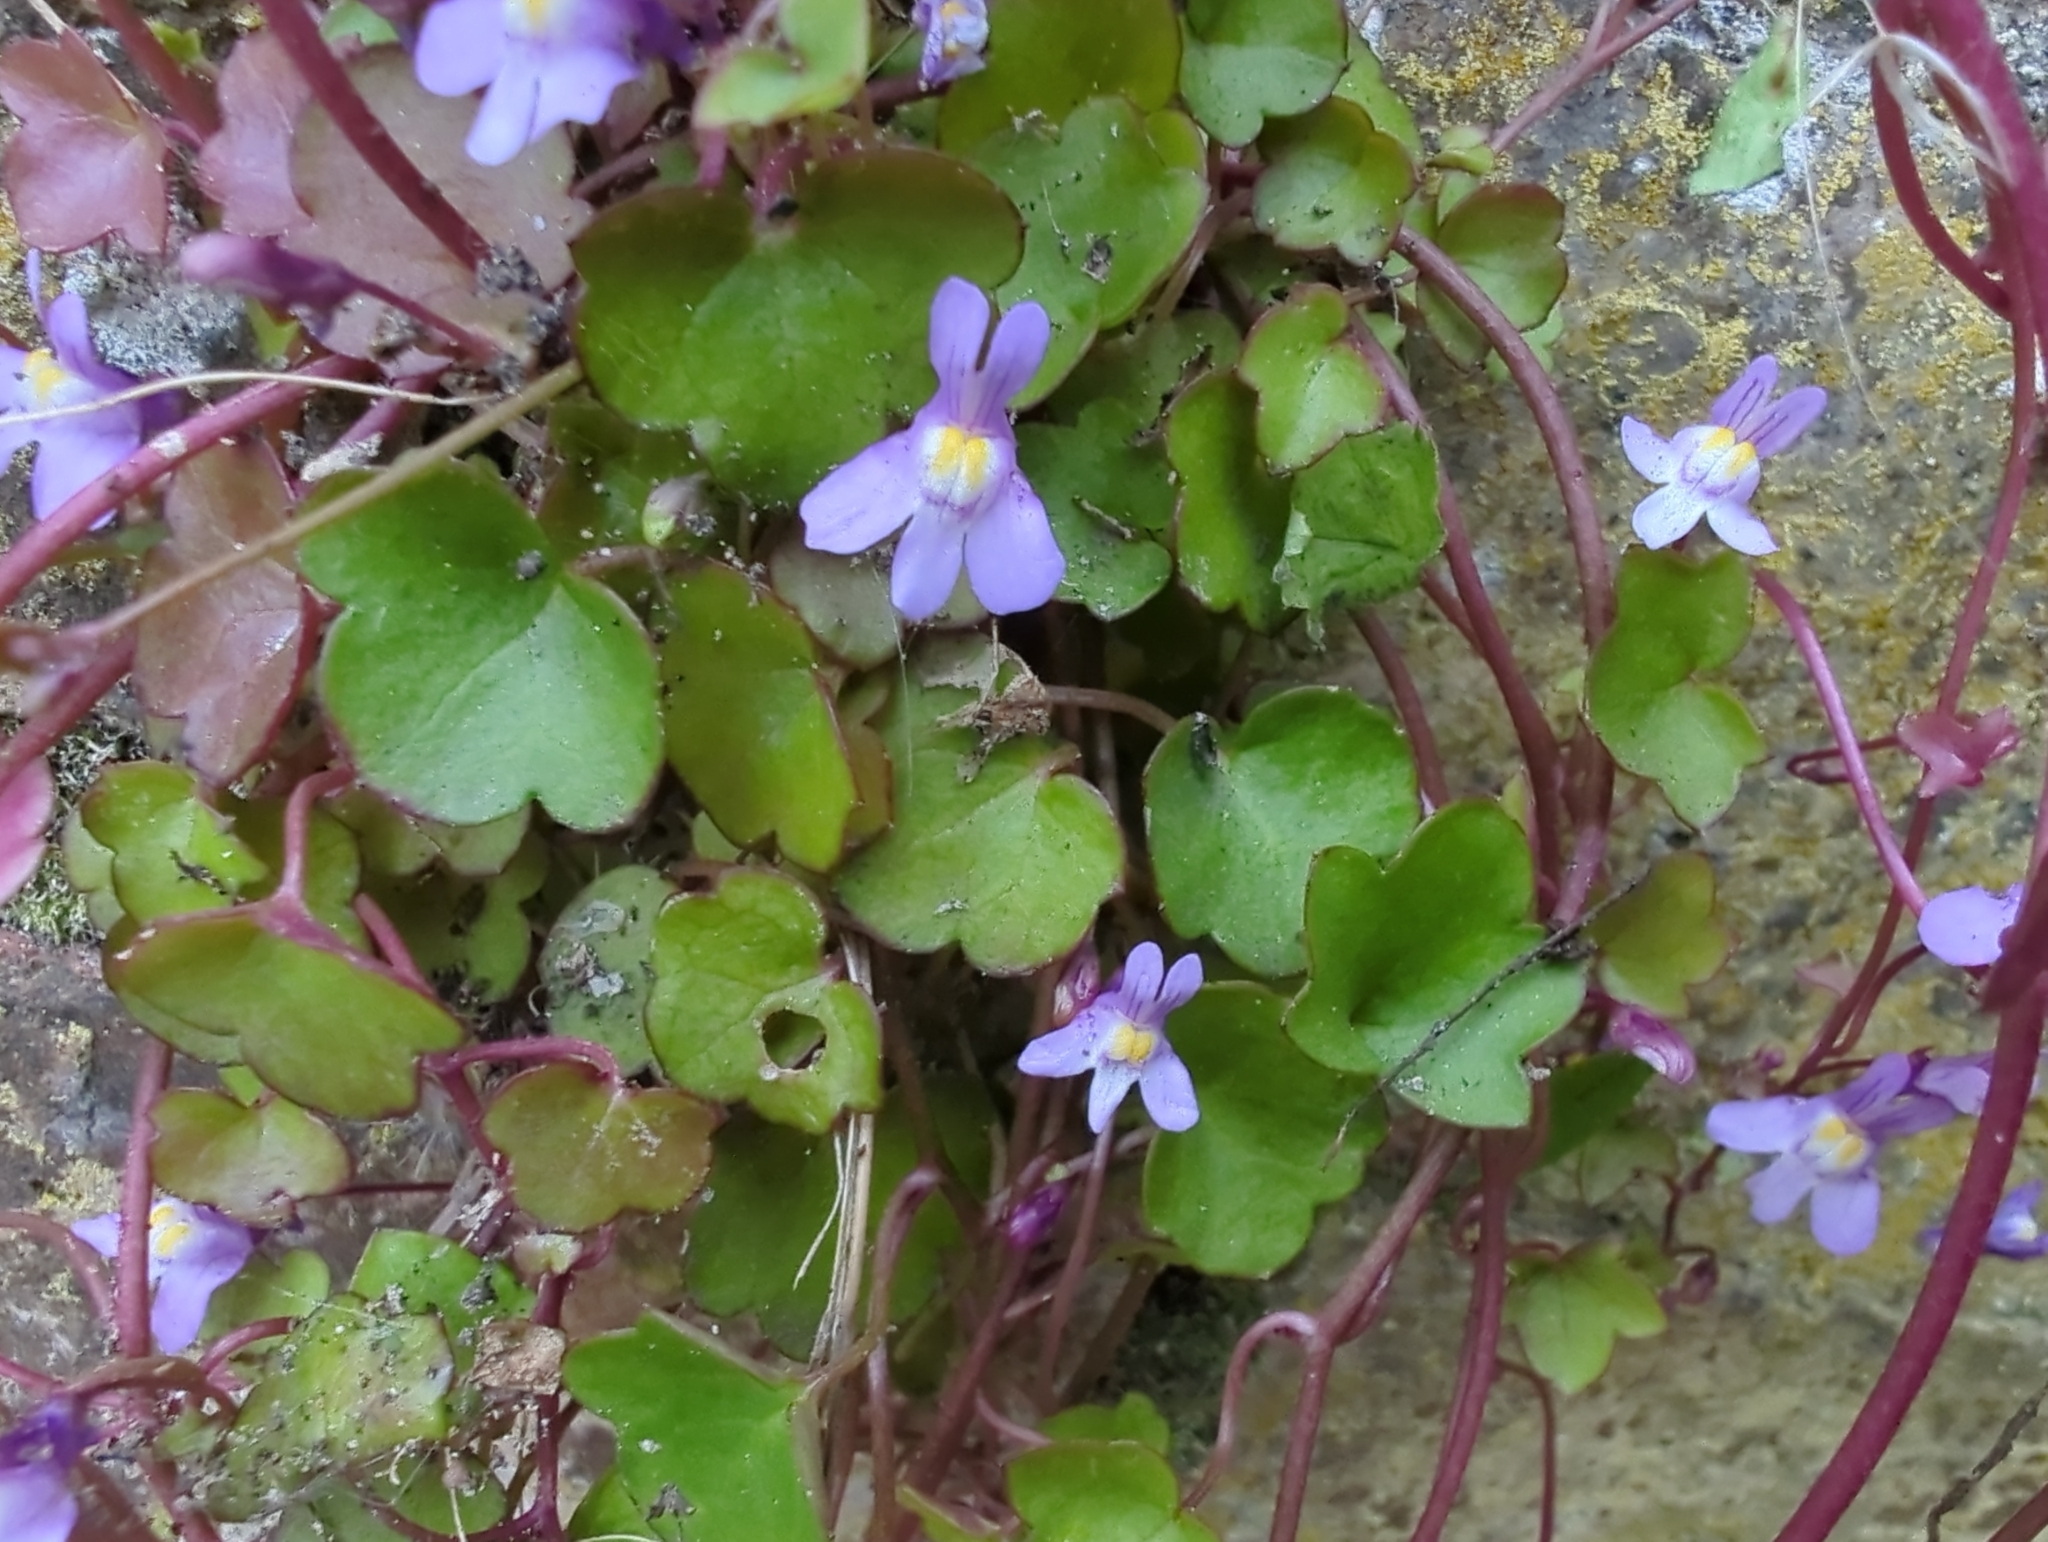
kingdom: Plantae
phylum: Tracheophyta
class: Magnoliopsida
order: Lamiales
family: Plantaginaceae
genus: Cymbalaria
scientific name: Cymbalaria muralis
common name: Ivy-leaved toadflax
